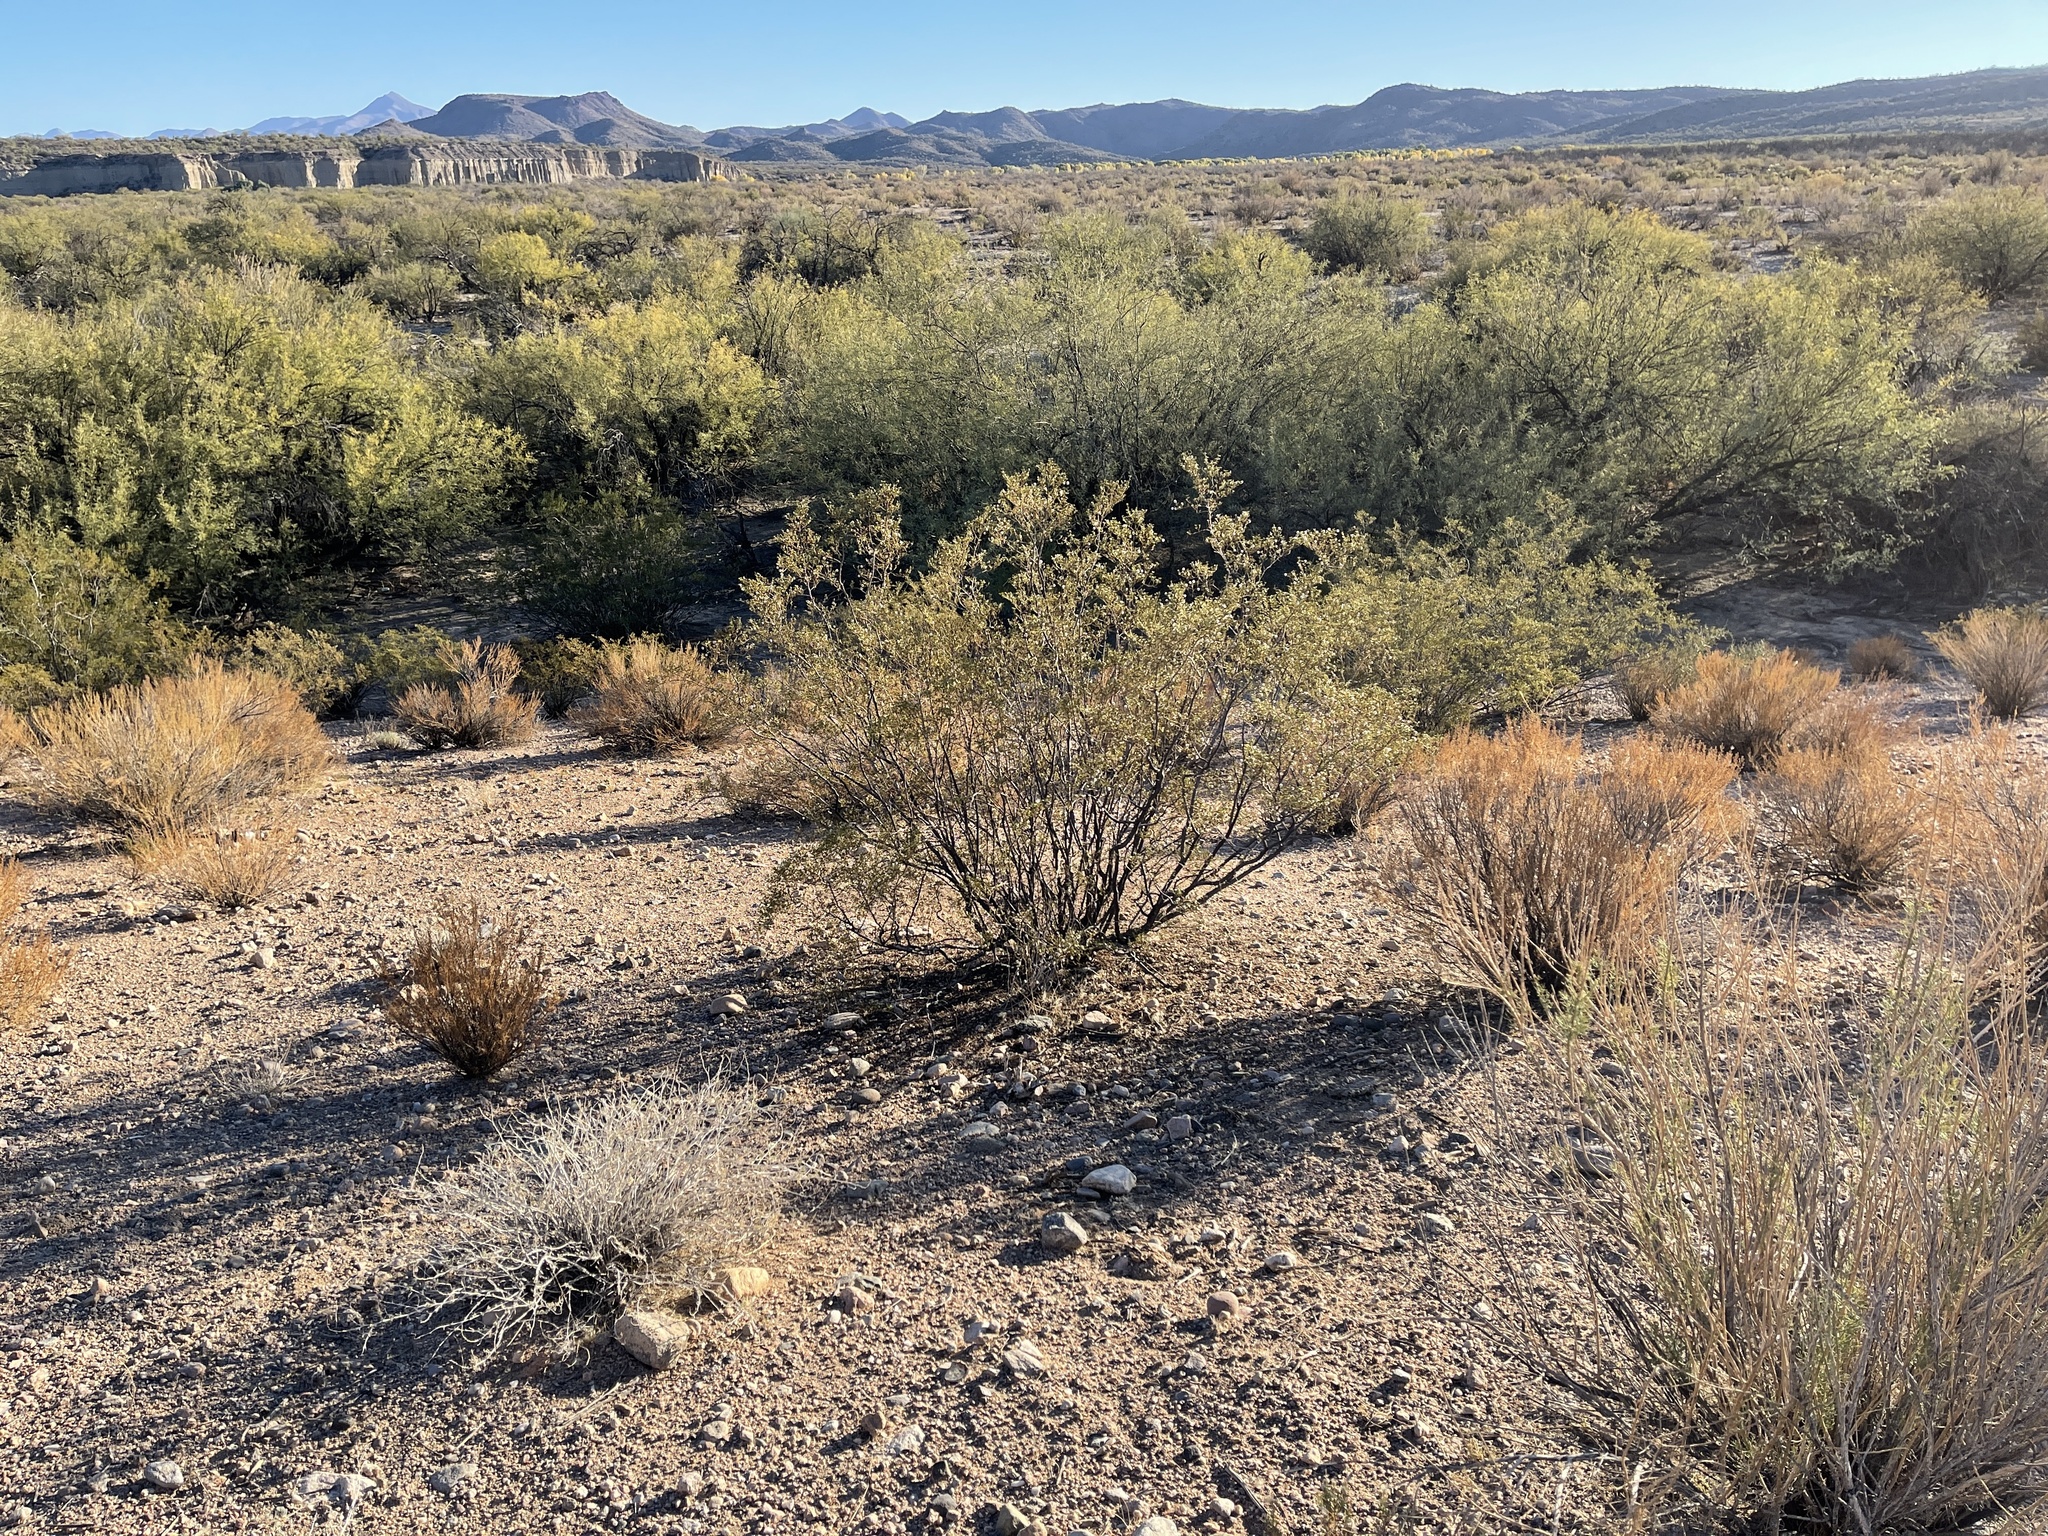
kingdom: Plantae
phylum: Tracheophyta
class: Magnoliopsida
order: Zygophyllales
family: Zygophyllaceae
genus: Larrea
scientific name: Larrea tridentata
